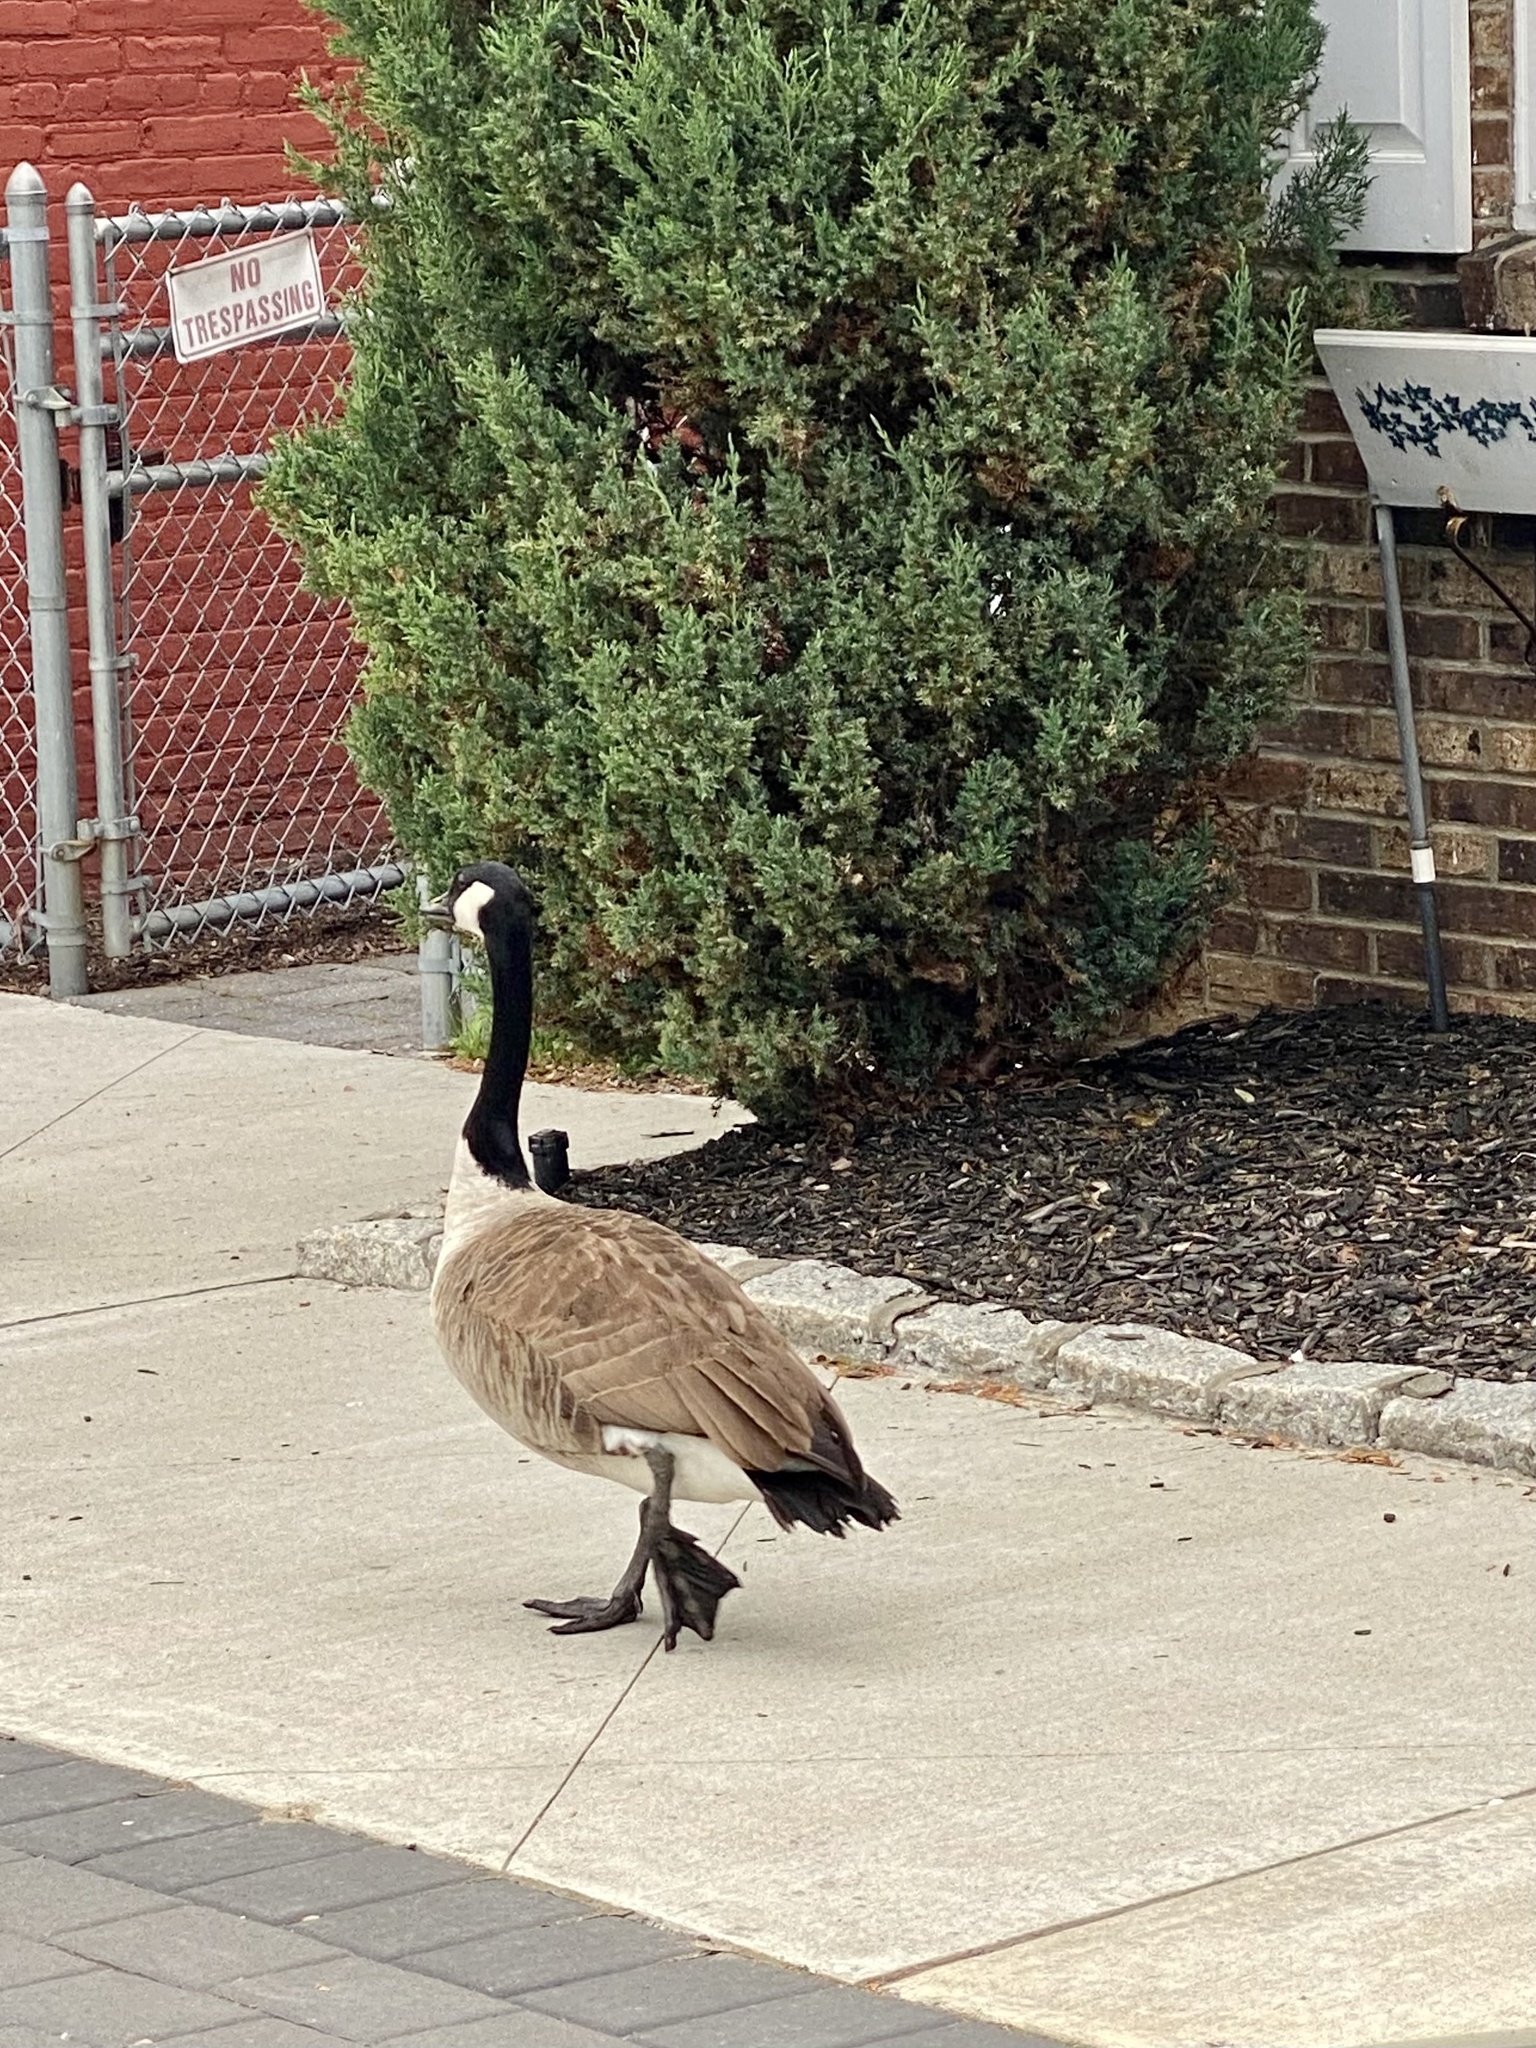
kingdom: Animalia
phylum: Chordata
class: Aves
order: Anseriformes
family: Anatidae
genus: Branta
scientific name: Branta canadensis
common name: Canada goose
